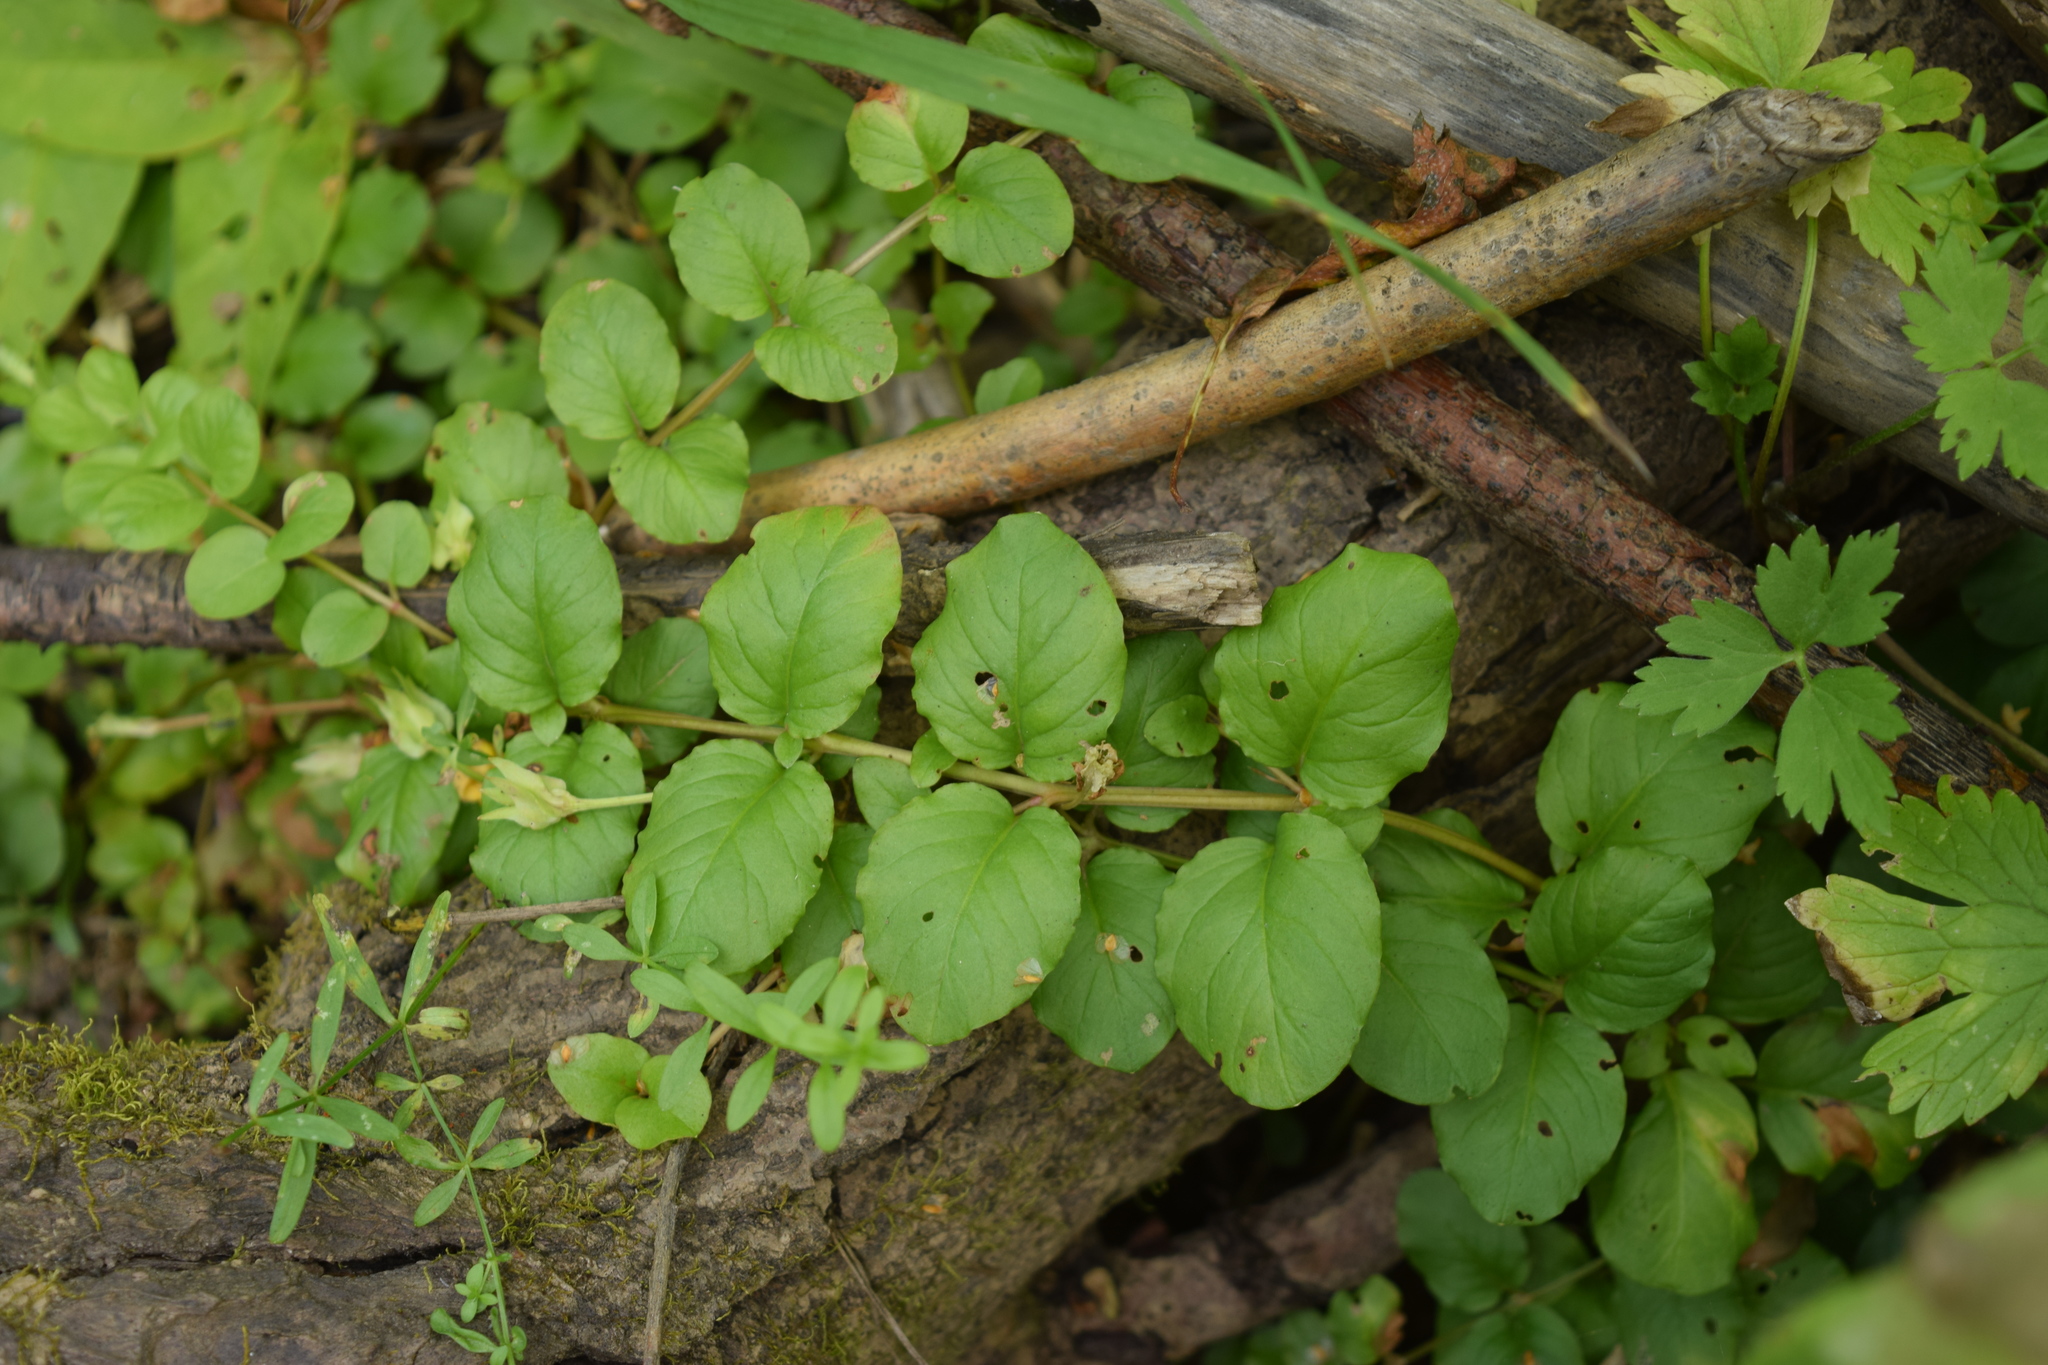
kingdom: Plantae
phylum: Tracheophyta
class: Magnoliopsida
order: Ericales
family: Primulaceae
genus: Lysimachia
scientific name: Lysimachia nummularia
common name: Moneywort
